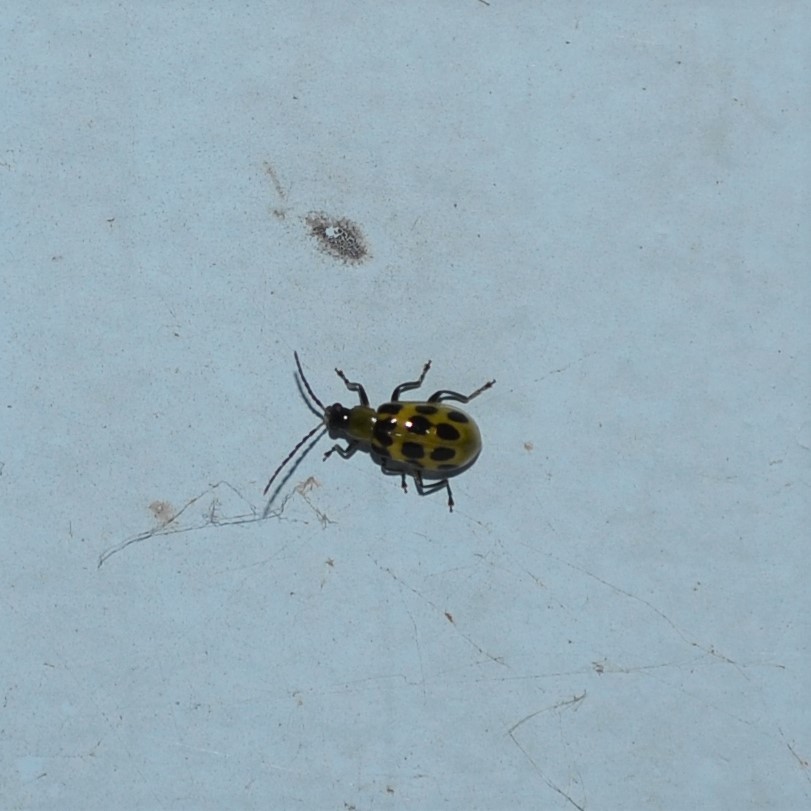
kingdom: Animalia
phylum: Arthropoda
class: Insecta
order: Coleoptera
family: Chrysomelidae
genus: Diabrotica
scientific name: Diabrotica undecimpunctata
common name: Spotted cucumber beetle
